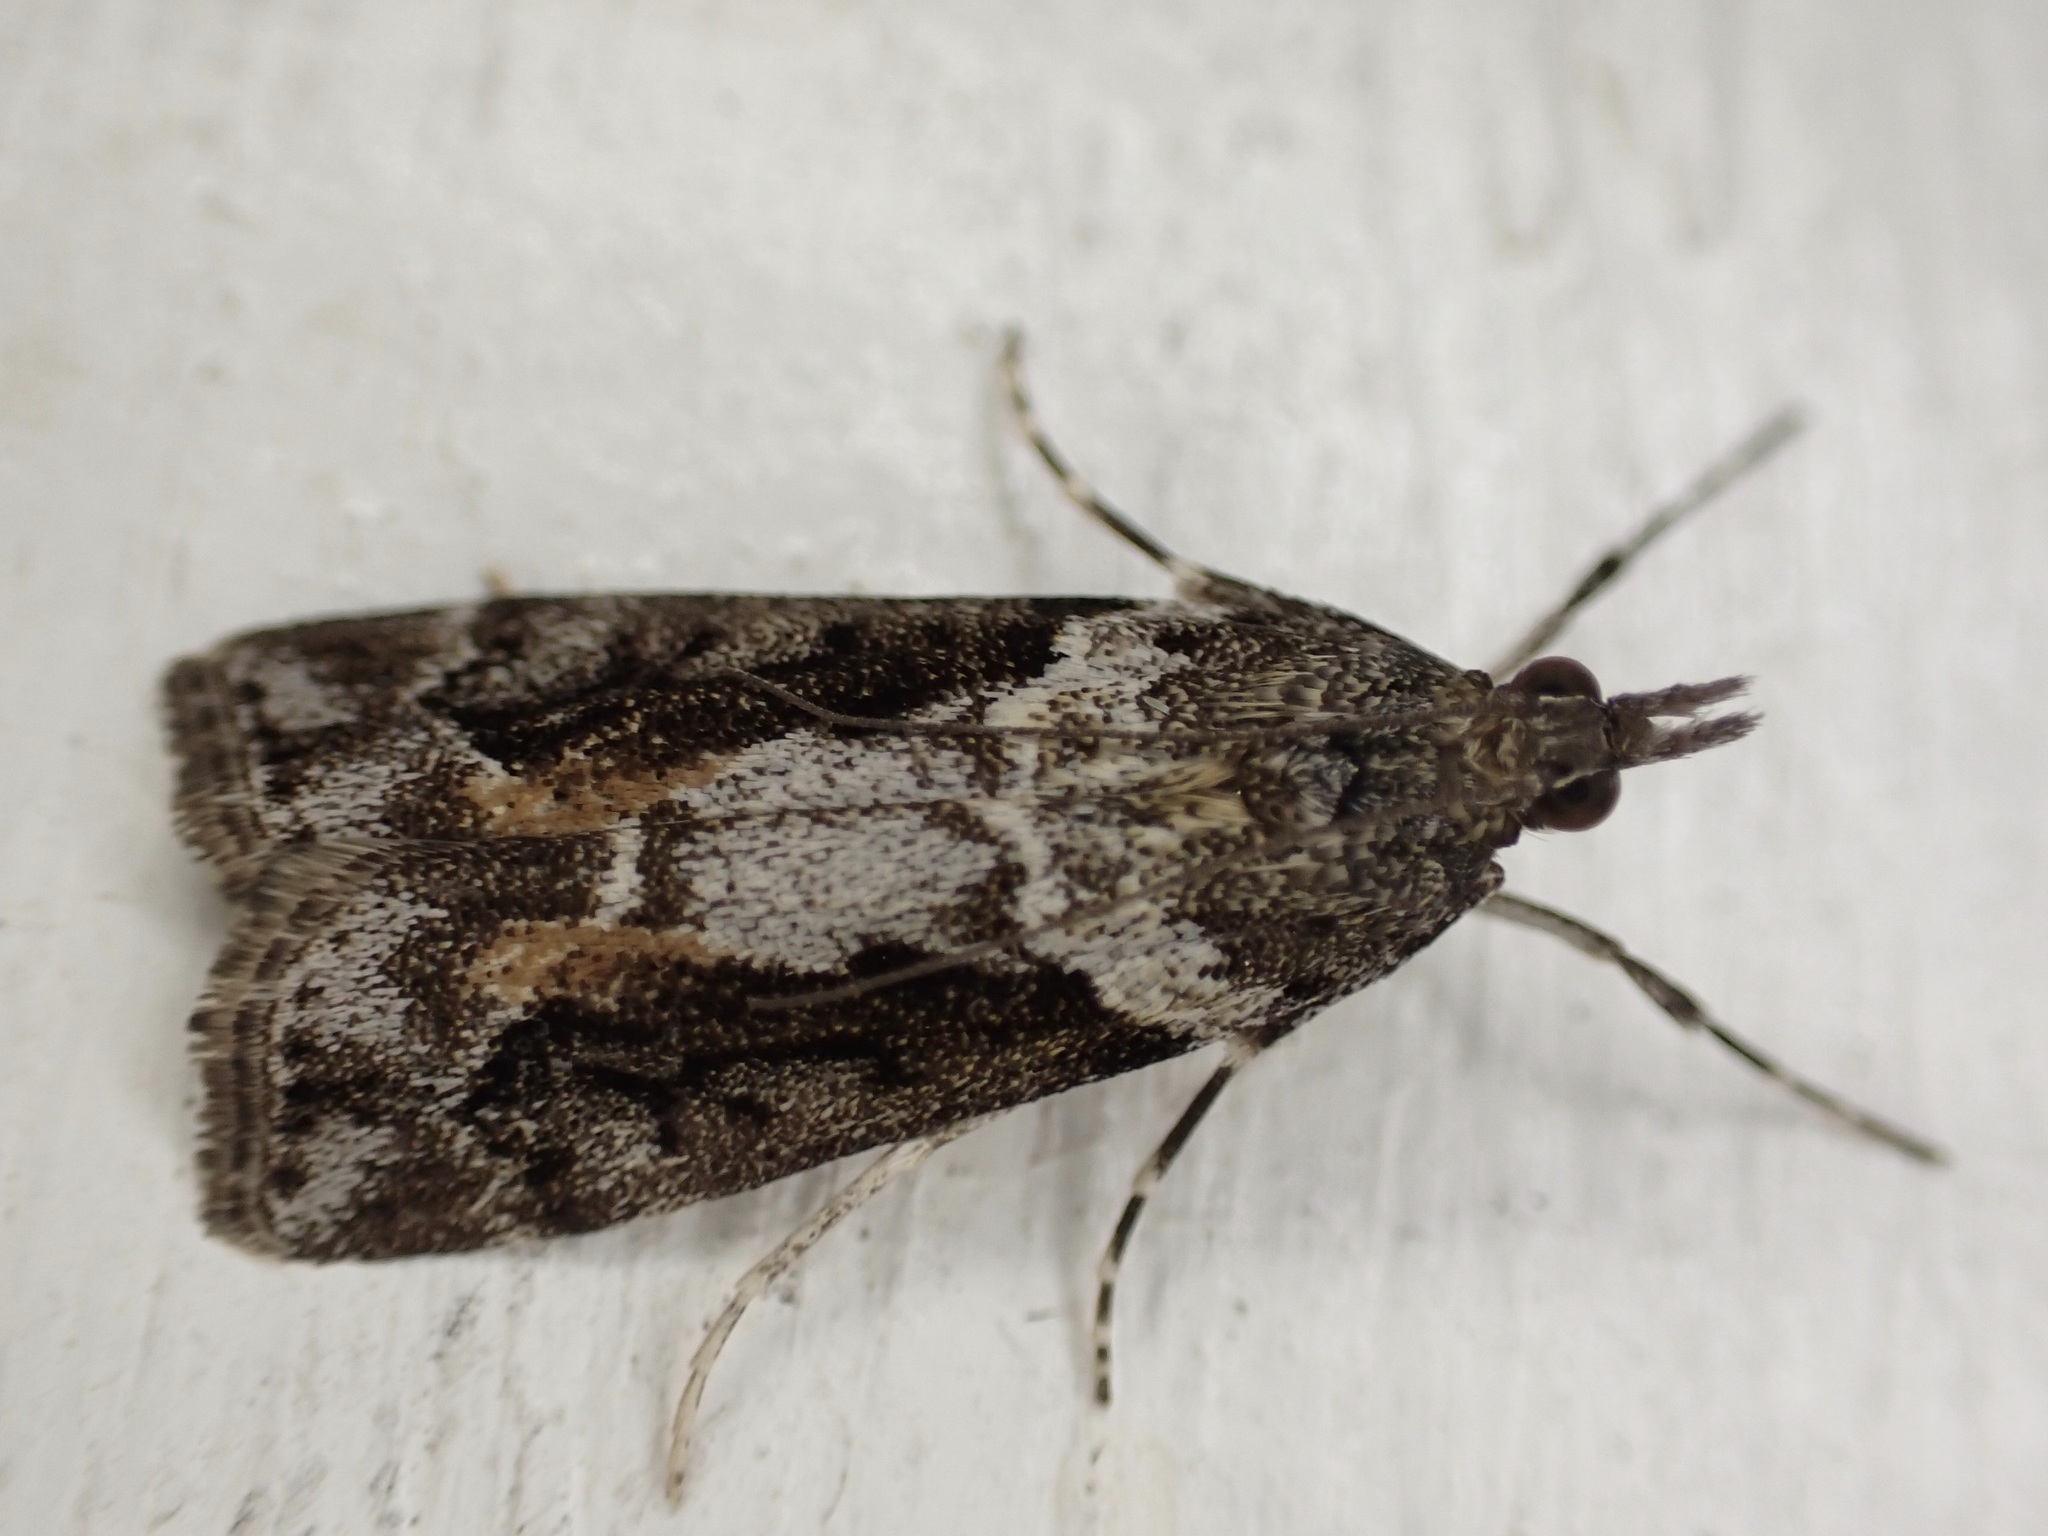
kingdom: Animalia
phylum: Arthropoda
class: Insecta
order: Lepidoptera
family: Crambidae
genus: Eudonia
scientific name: Eudonia submarginalis
